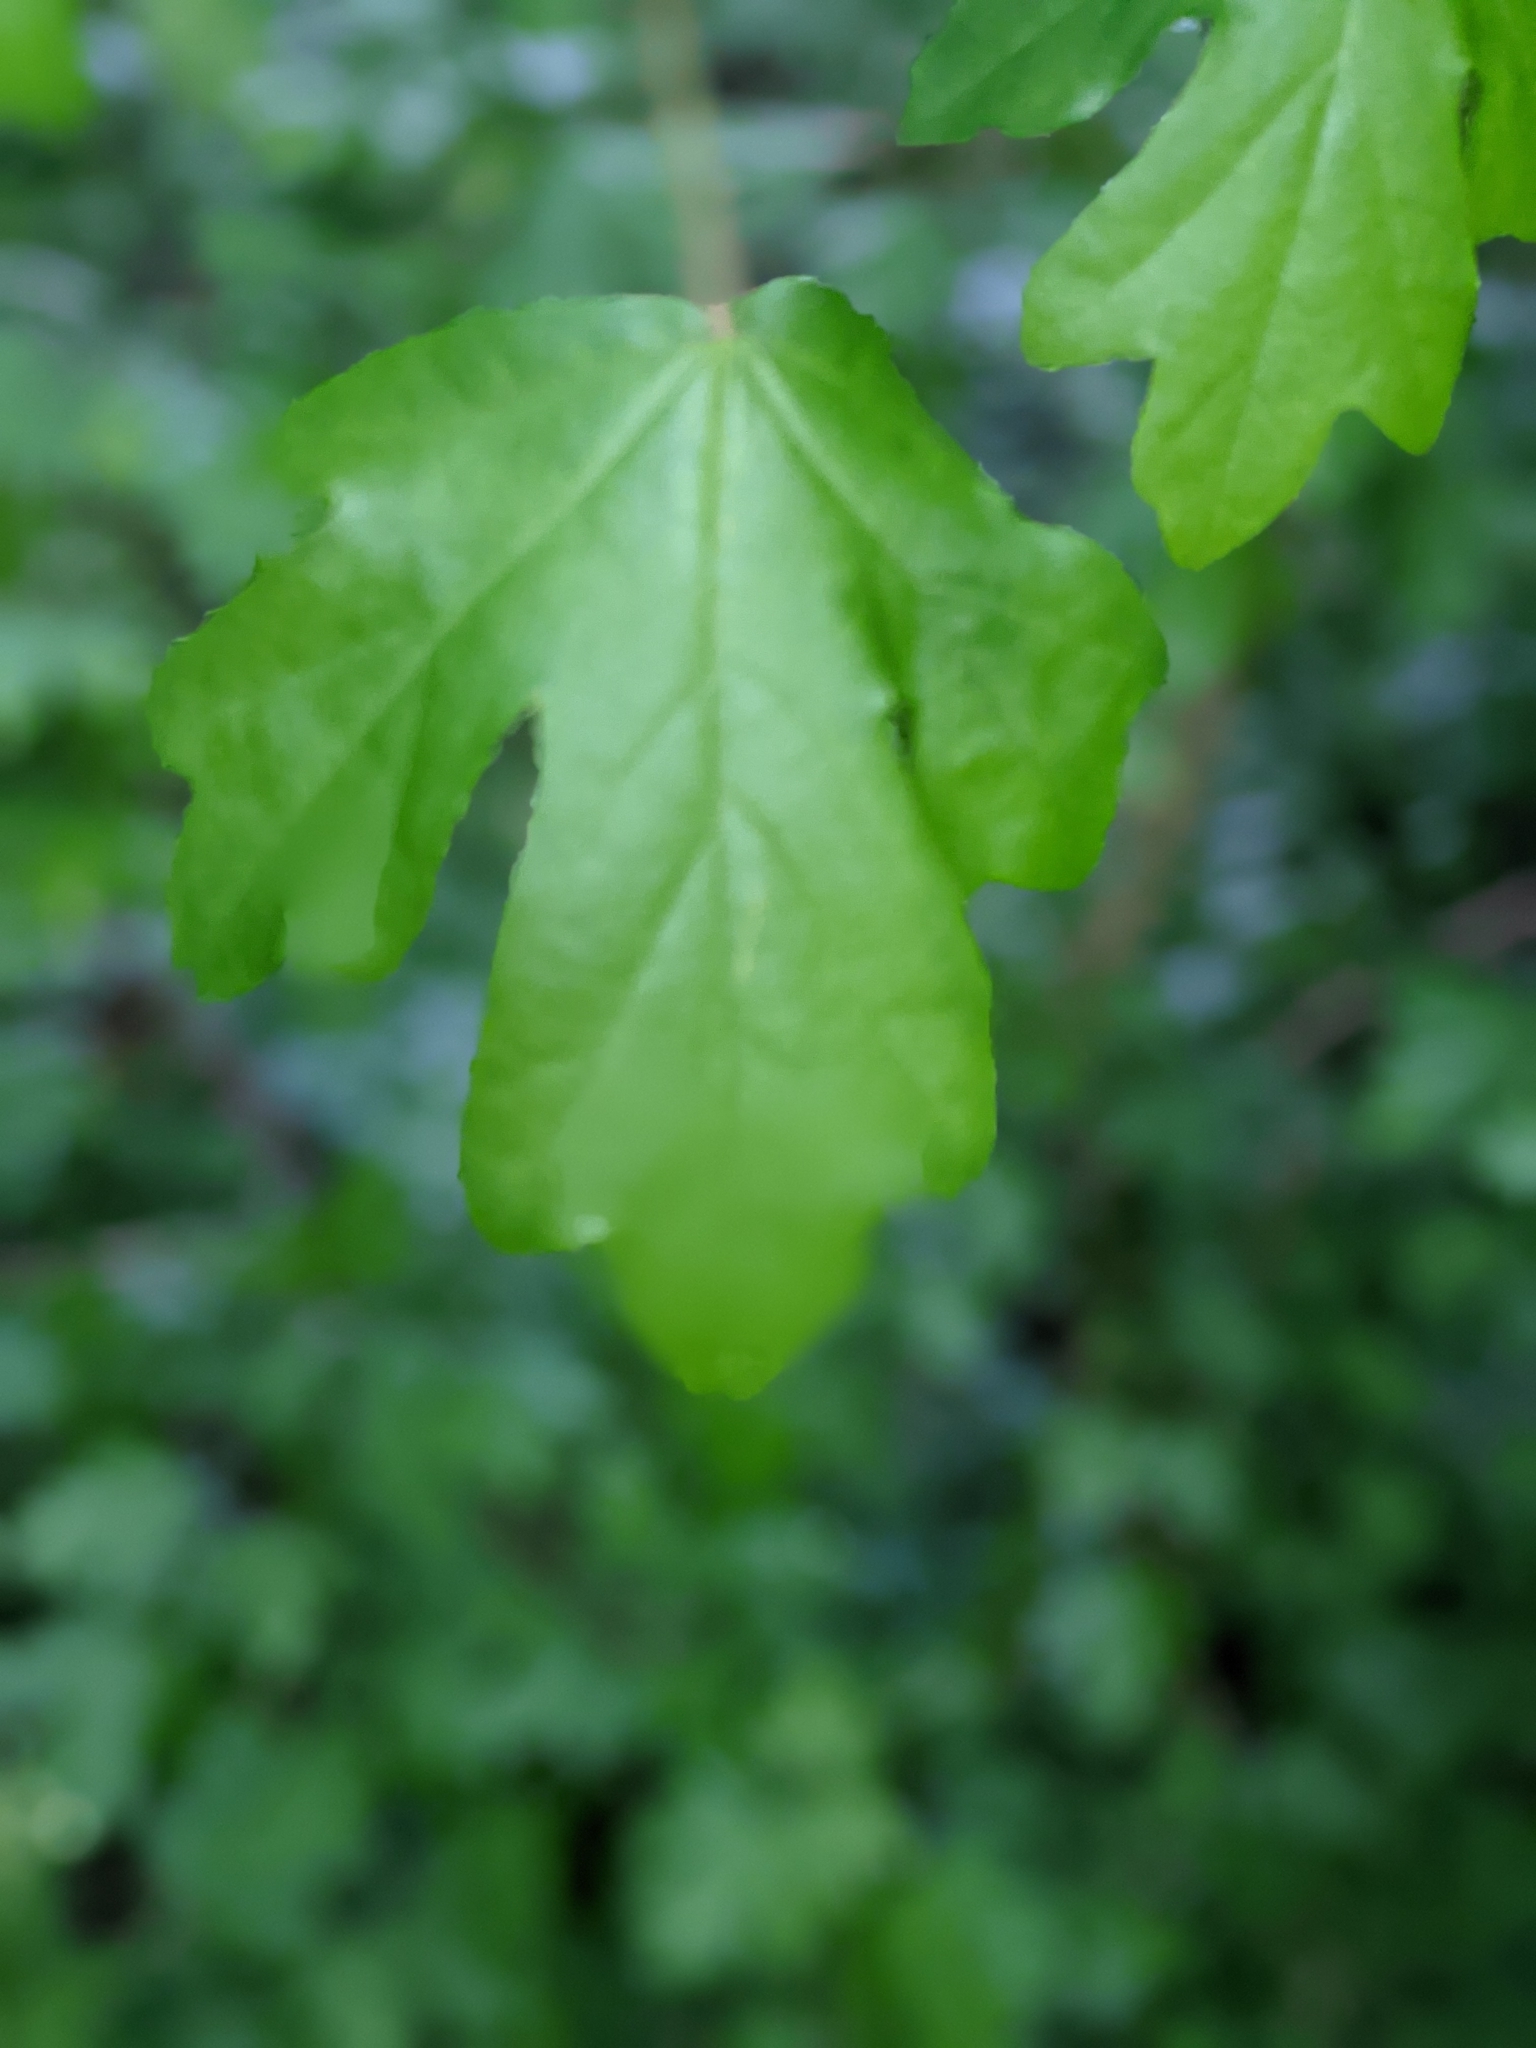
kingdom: Plantae
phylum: Tracheophyta
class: Magnoliopsida
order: Sapindales
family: Sapindaceae
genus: Acer
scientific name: Acer campestre
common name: Field maple
